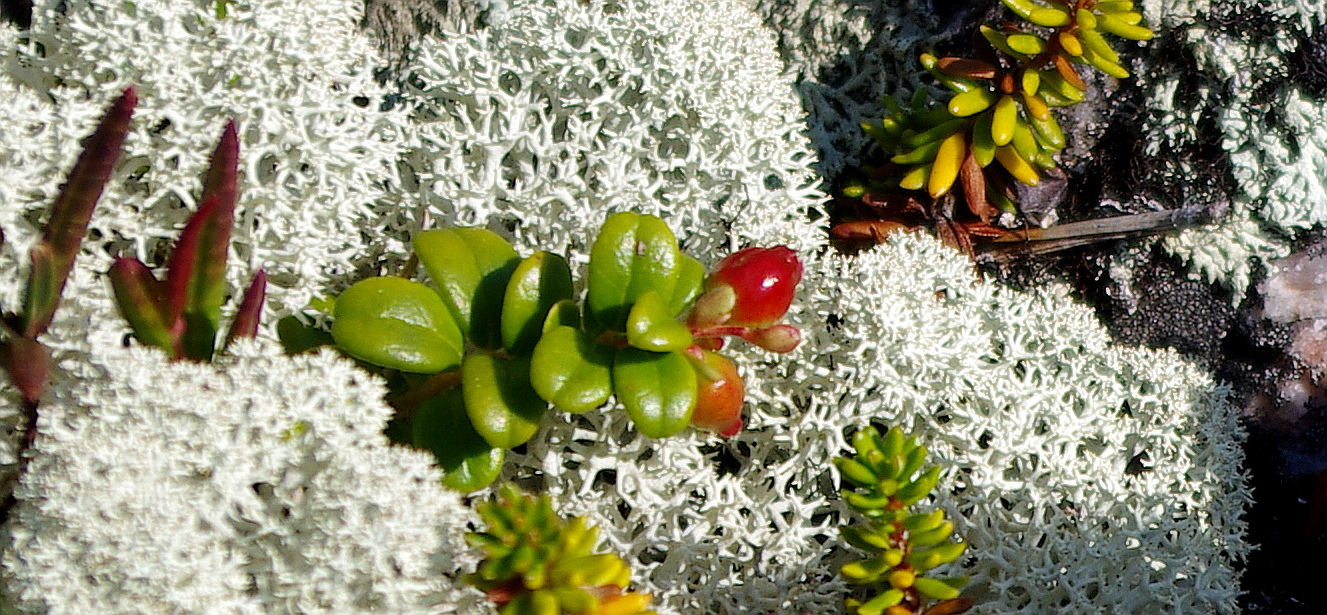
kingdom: Plantae
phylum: Tracheophyta
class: Magnoliopsida
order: Ericales
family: Ericaceae
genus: Vaccinium
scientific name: Vaccinium vitis-idaea
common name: Cowberry
